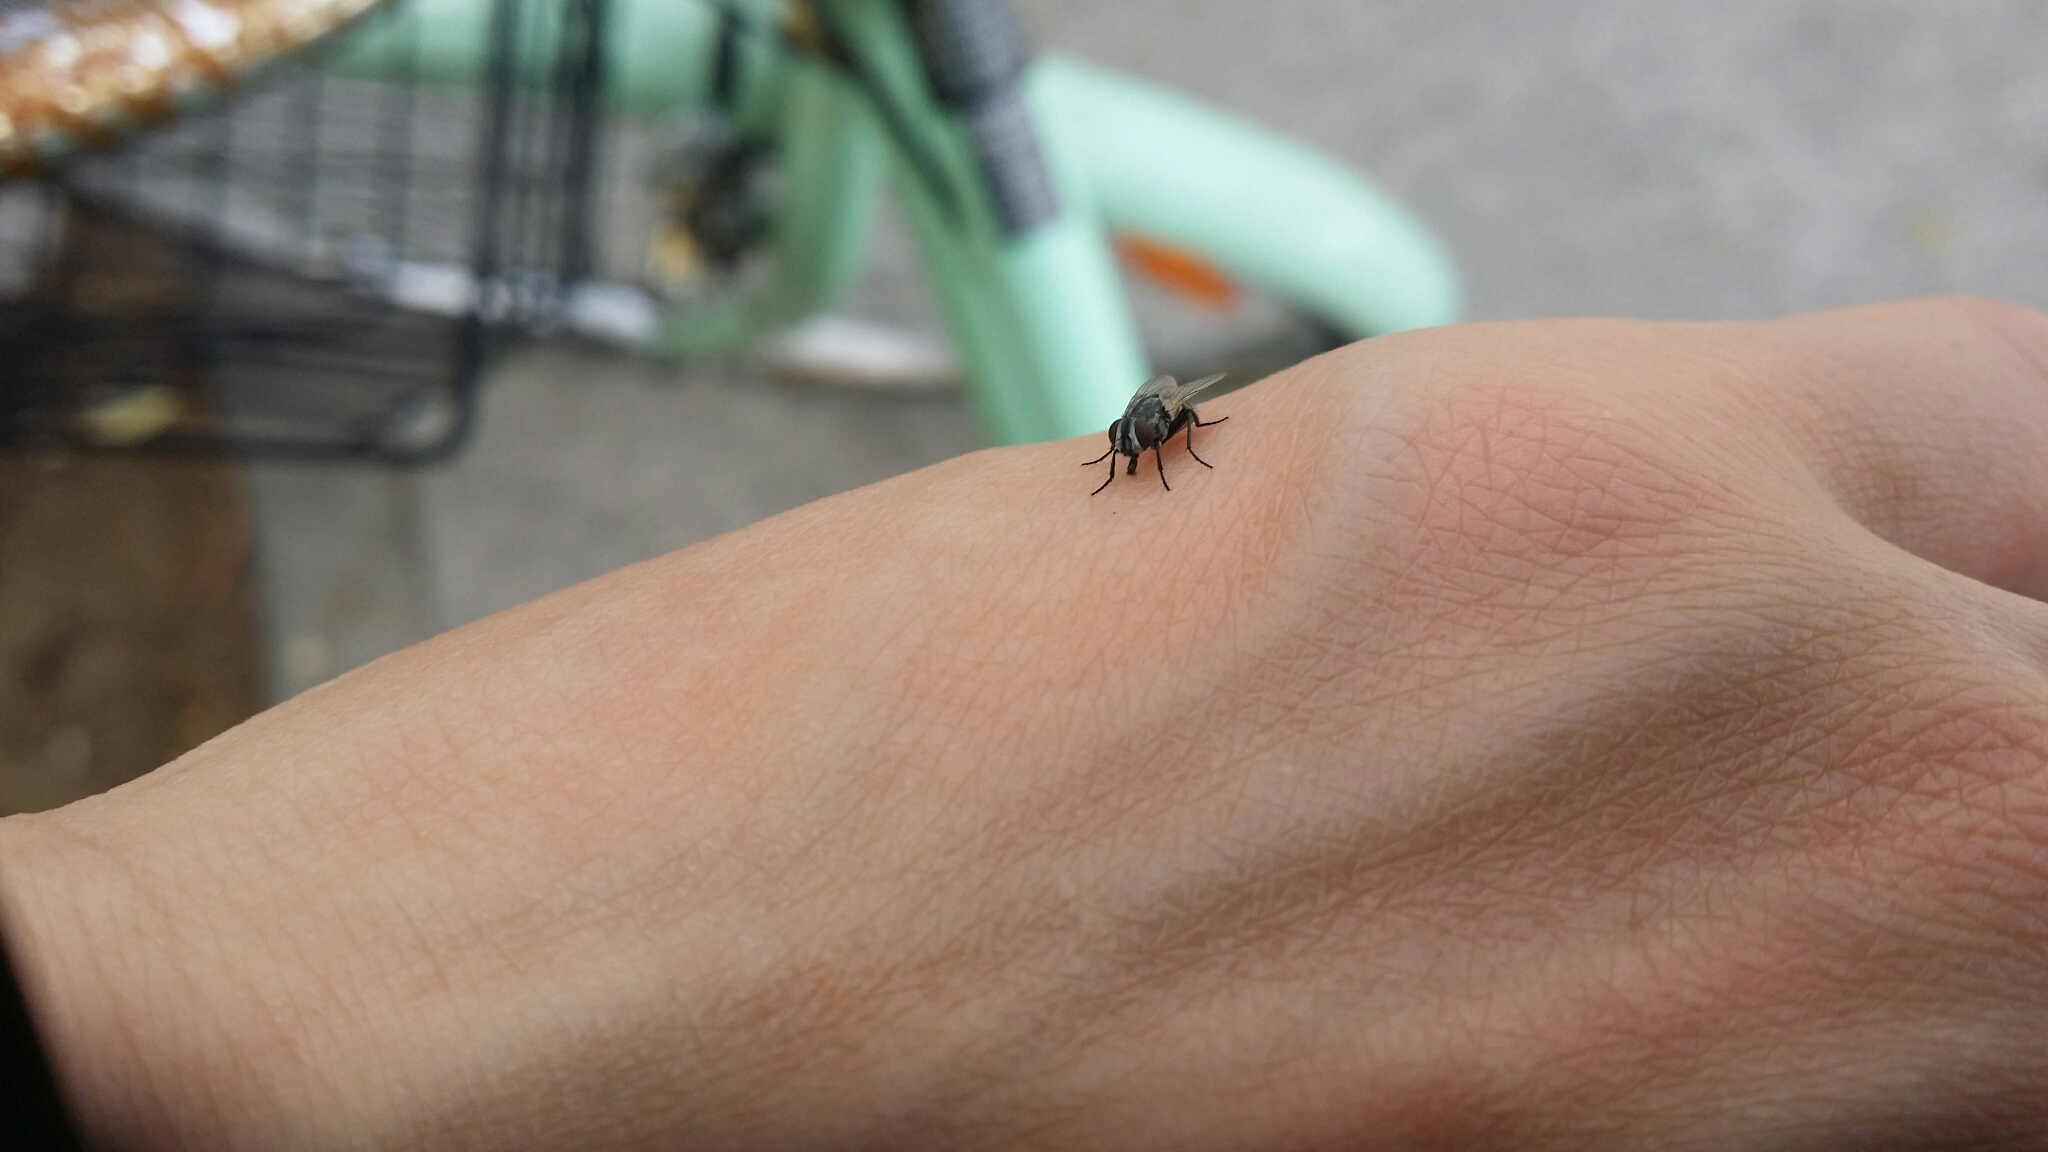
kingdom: Animalia
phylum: Arthropoda
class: Insecta
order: Diptera
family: Muscidae
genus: Musca
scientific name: Musca domestica
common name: House fly
